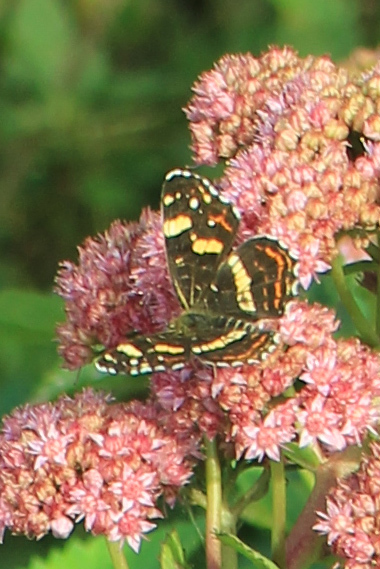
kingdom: Animalia
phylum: Arthropoda
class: Insecta
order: Lepidoptera
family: Nymphalidae
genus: Araschnia
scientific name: Araschnia levana
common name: Map butterfly
